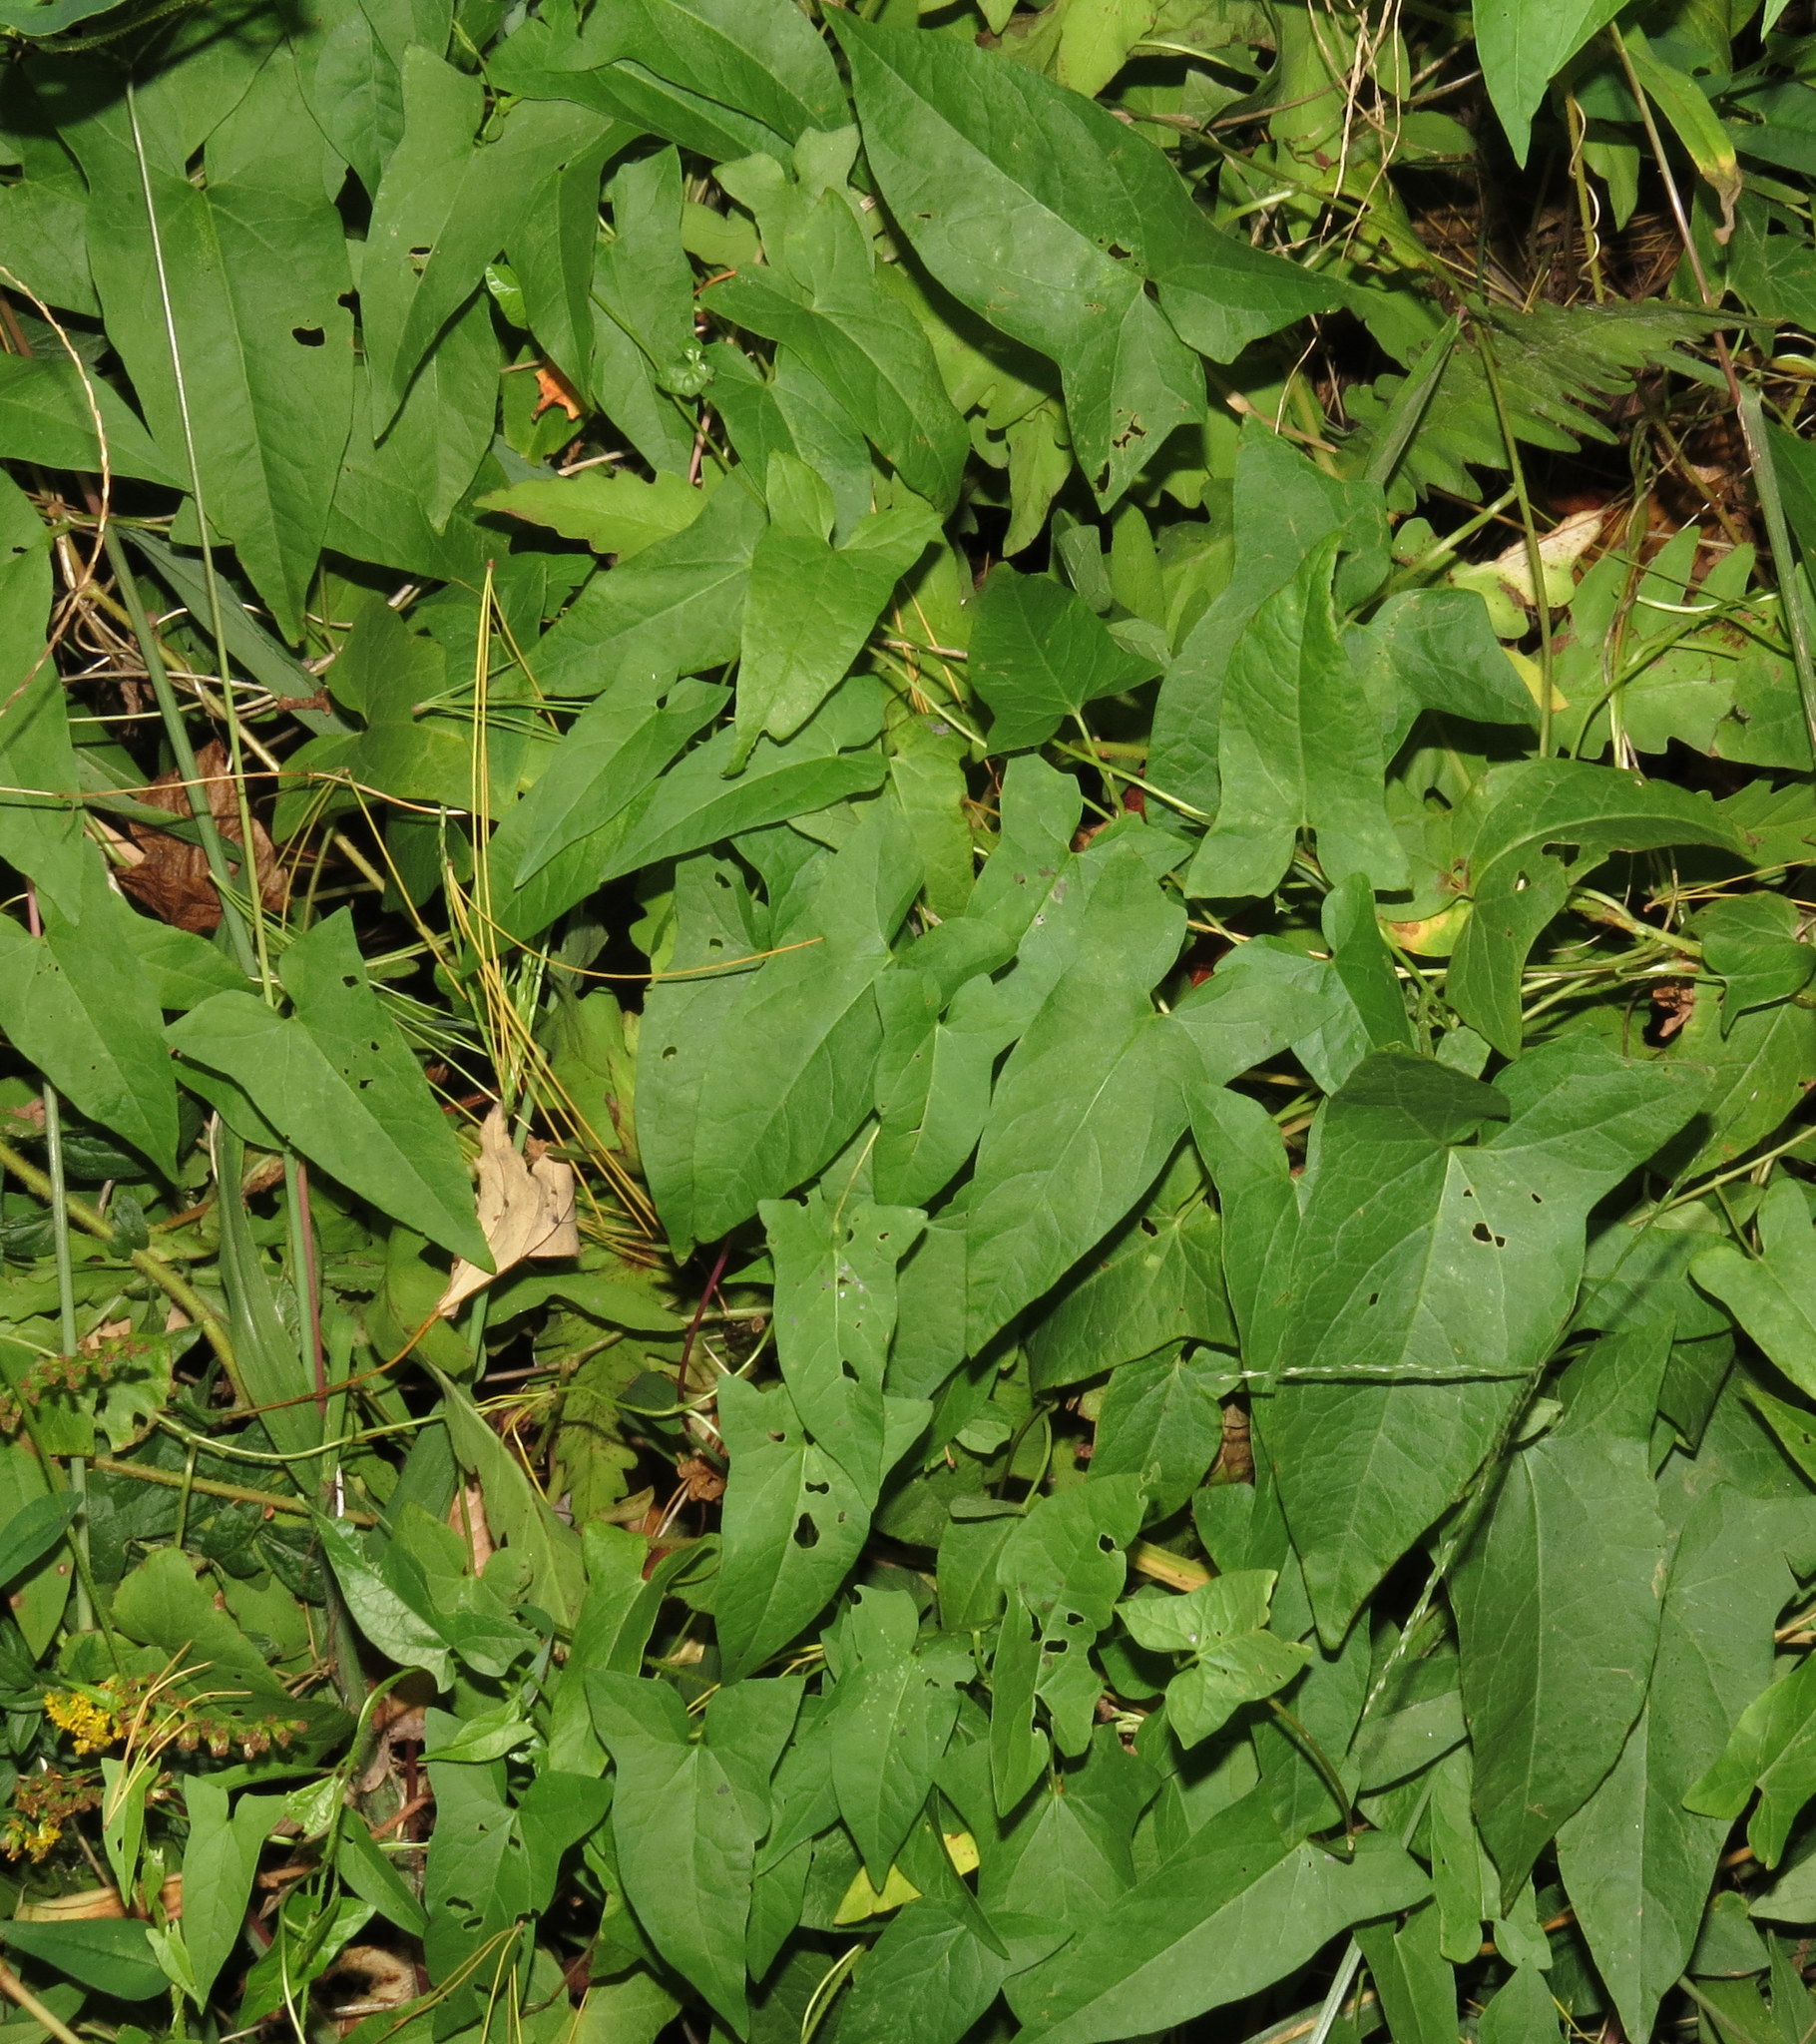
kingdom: Plantae
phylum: Tracheophyta
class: Magnoliopsida
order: Solanales
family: Convolvulaceae
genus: Calystegia
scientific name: Calystegia sepium
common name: Hedge bindweed
